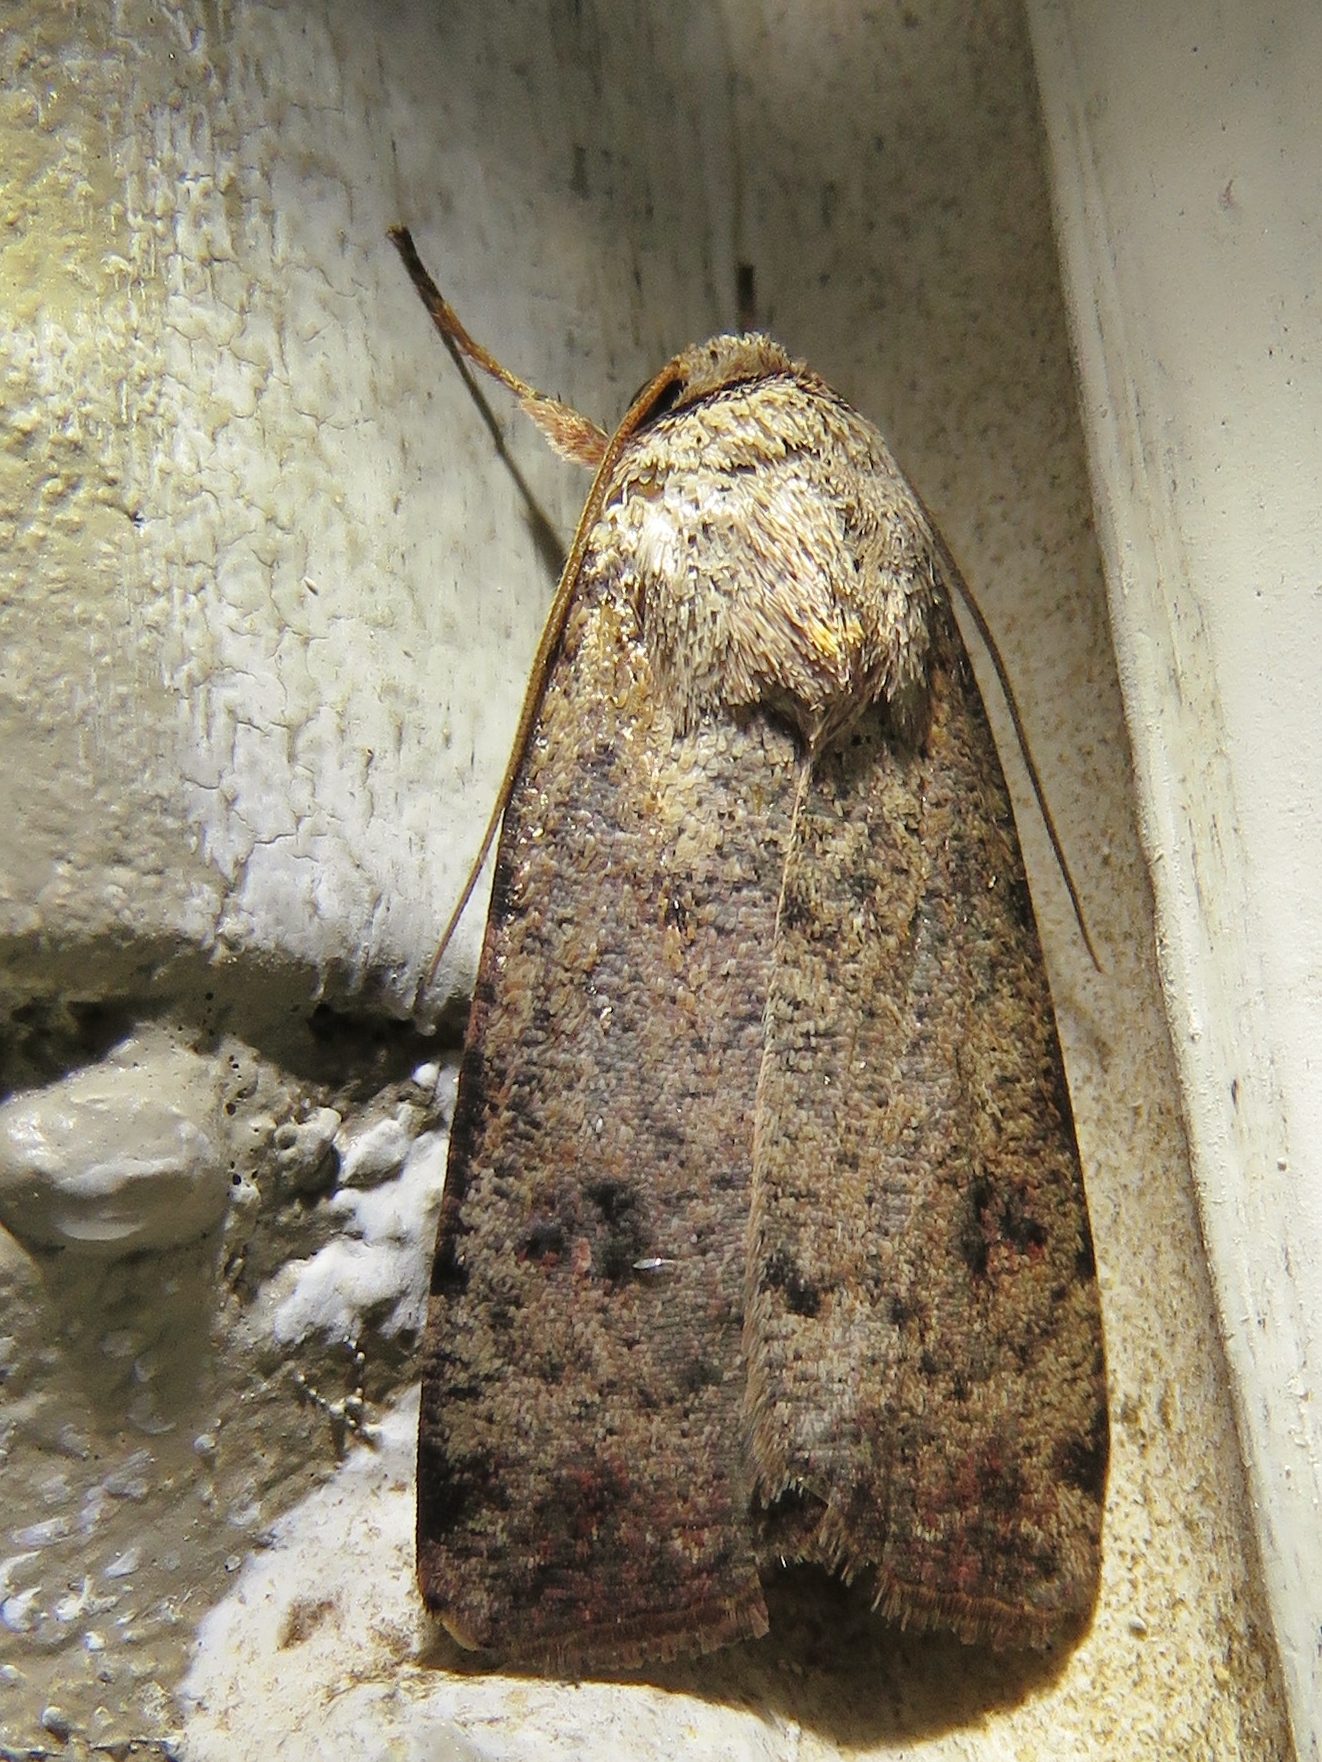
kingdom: Animalia
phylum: Arthropoda
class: Insecta
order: Lepidoptera
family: Noctuidae
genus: Anicla
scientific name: Anicla infecta
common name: Green cutworm
